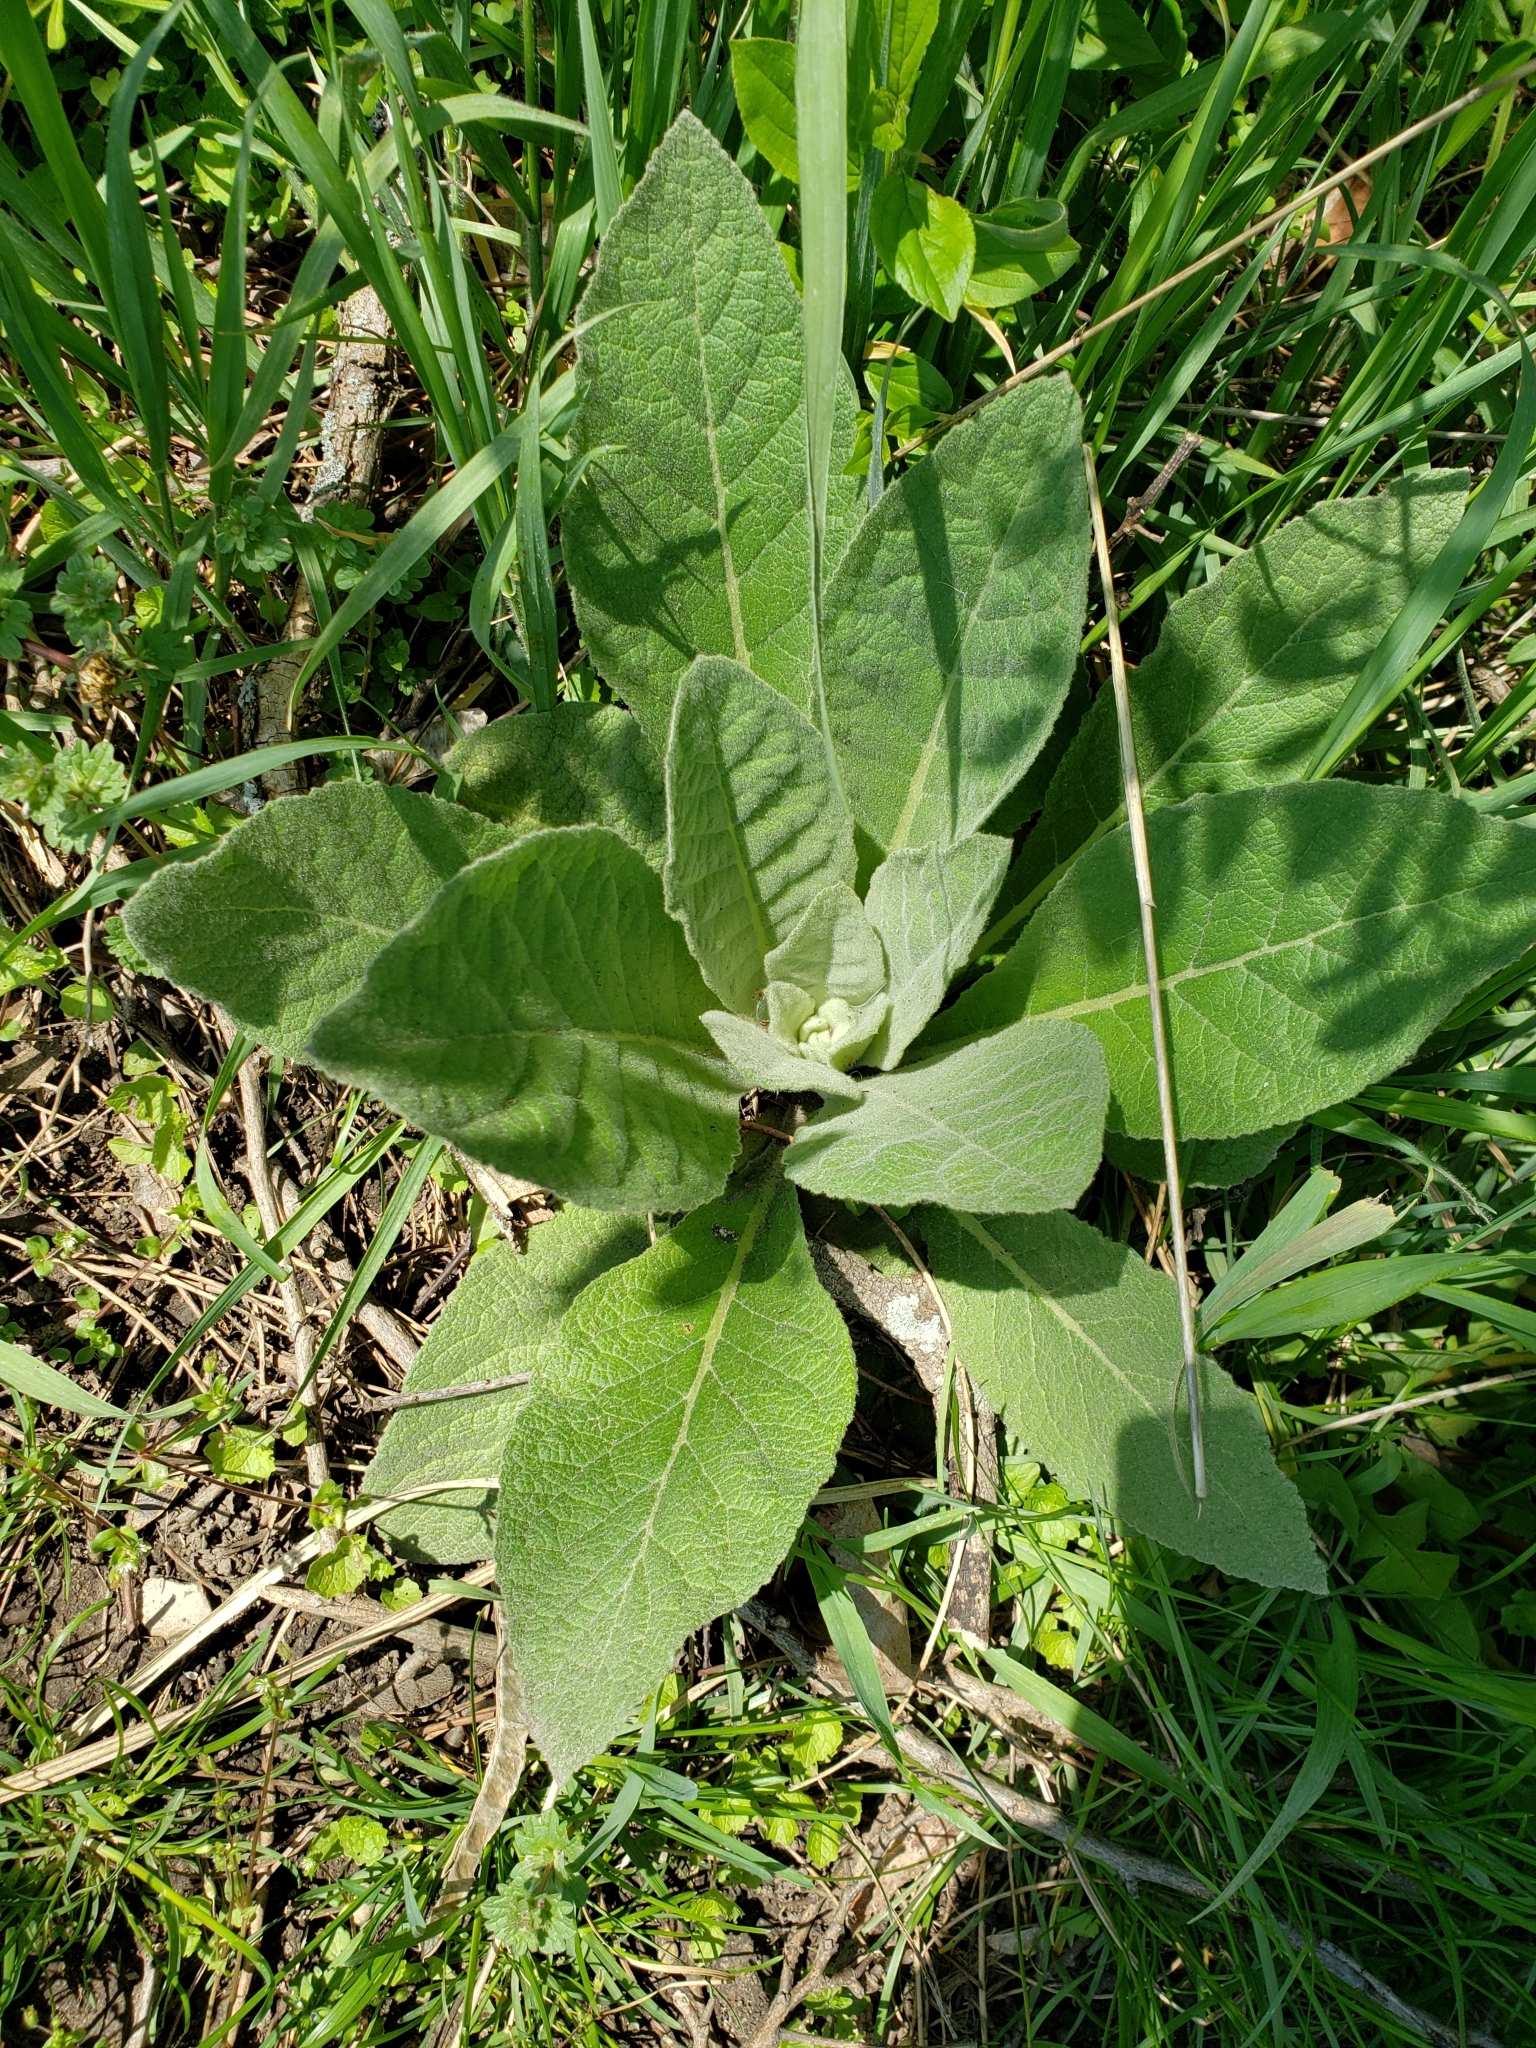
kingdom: Plantae
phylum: Tracheophyta
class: Magnoliopsida
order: Lamiales
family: Scrophulariaceae
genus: Verbascum
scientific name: Verbascum thapsus
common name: Common mullein
